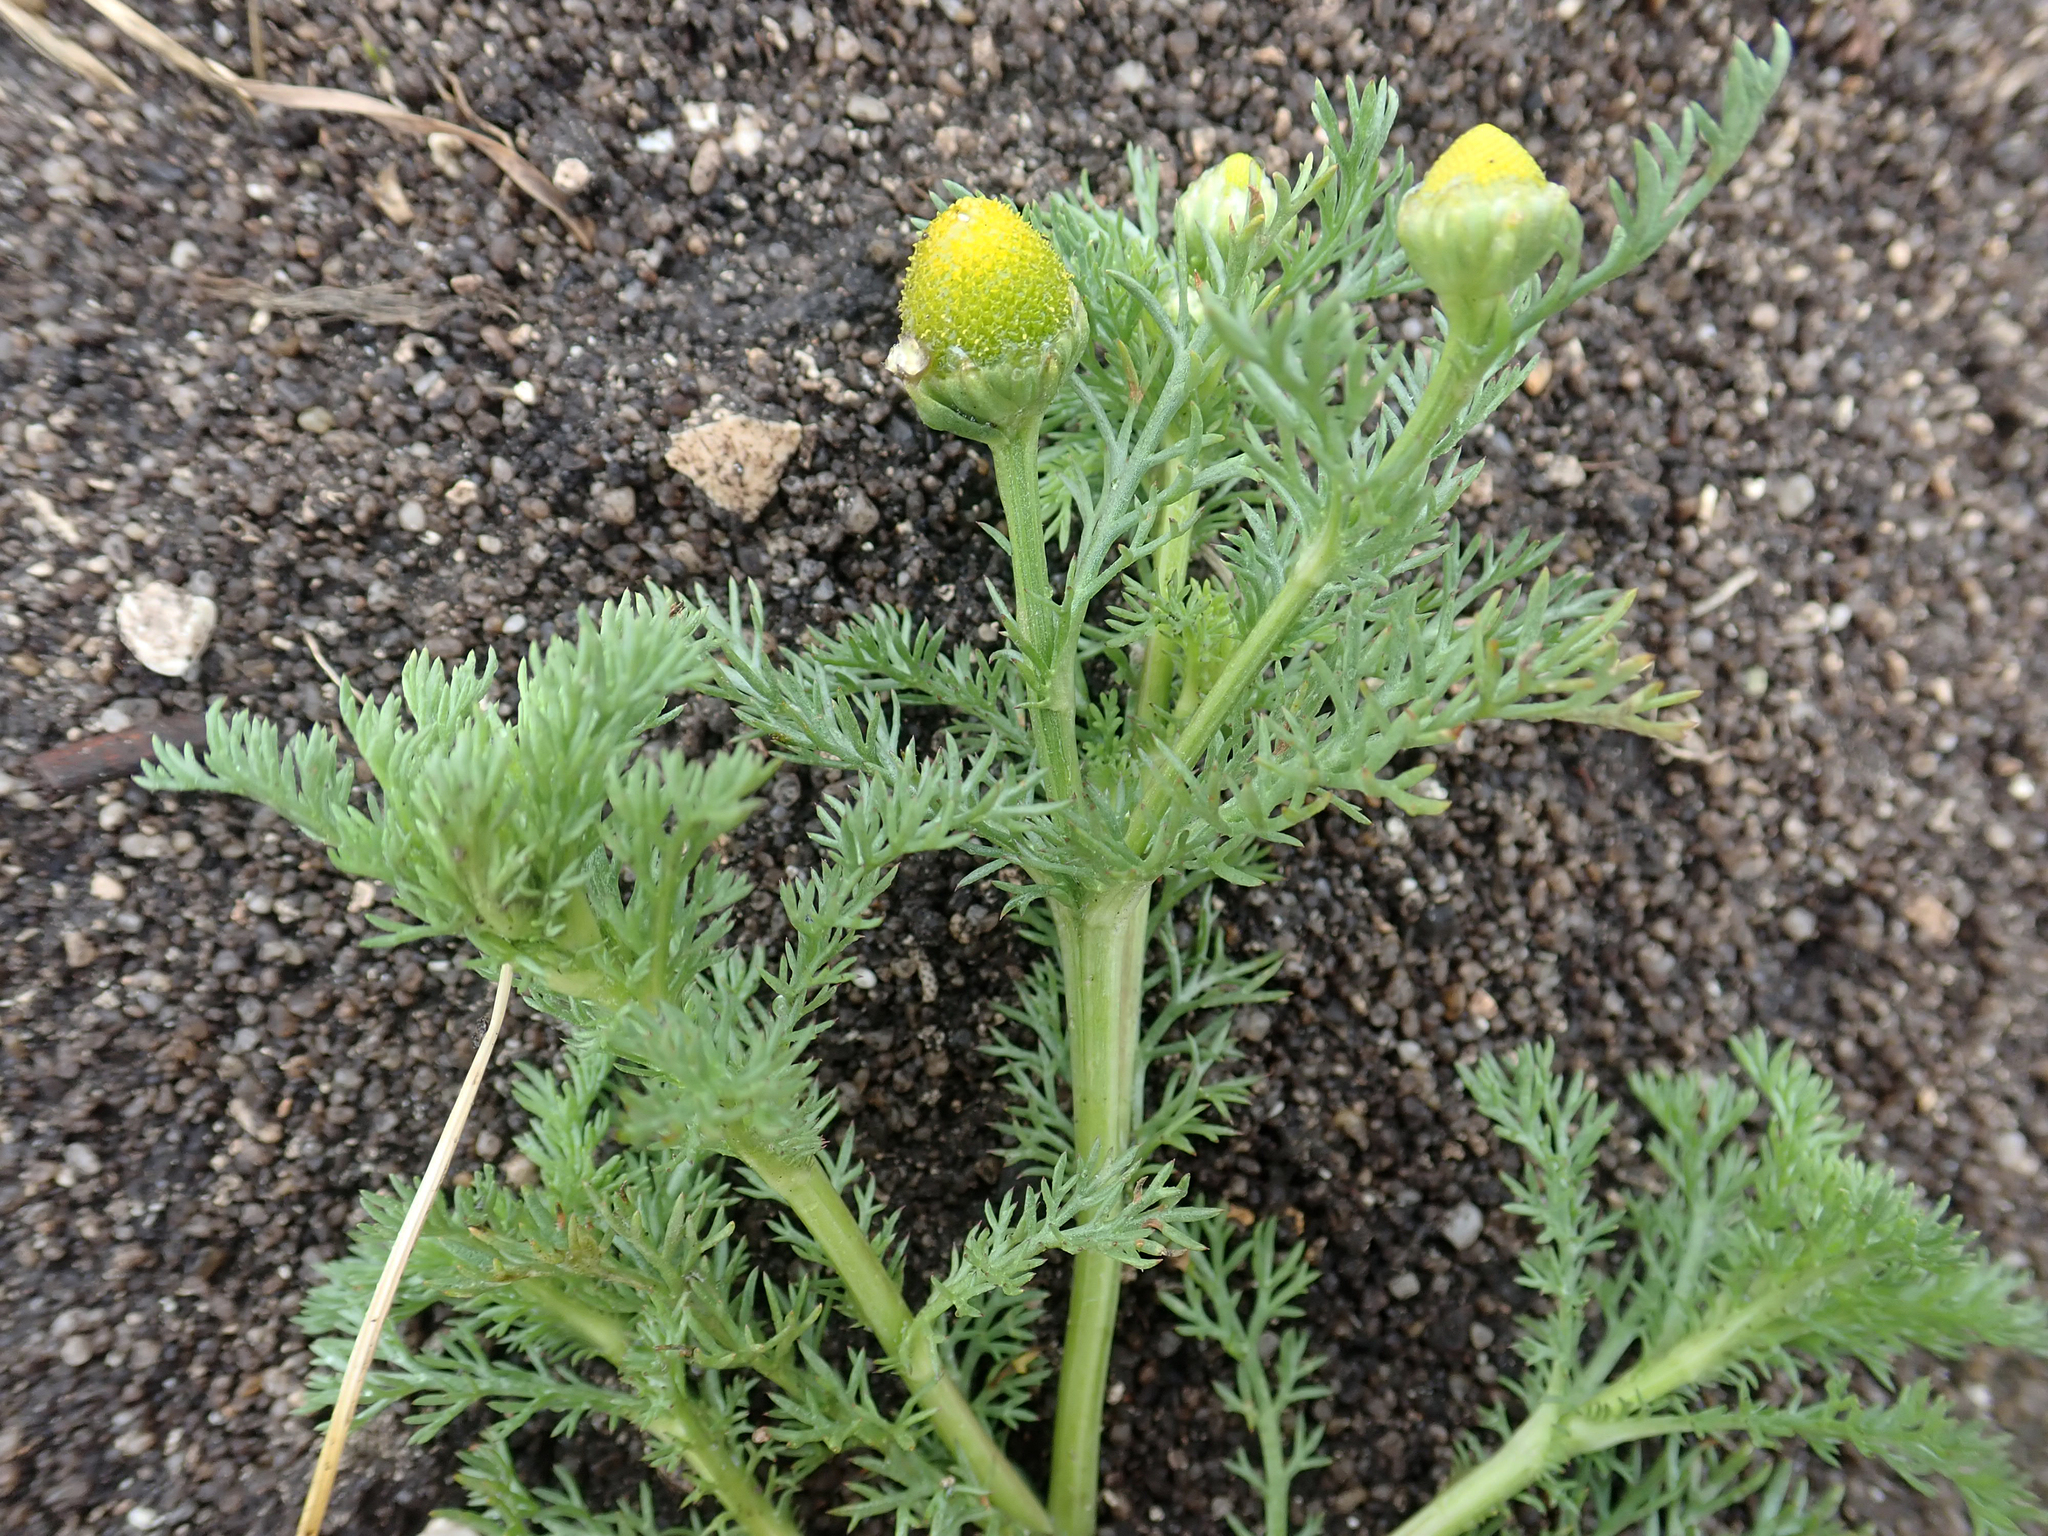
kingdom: Plantae
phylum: Tracheophyta
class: Magnoliopsida
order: Asterales
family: Asteraceae
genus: Matricaria
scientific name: Matricaria discoidea
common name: Disc mayweed
